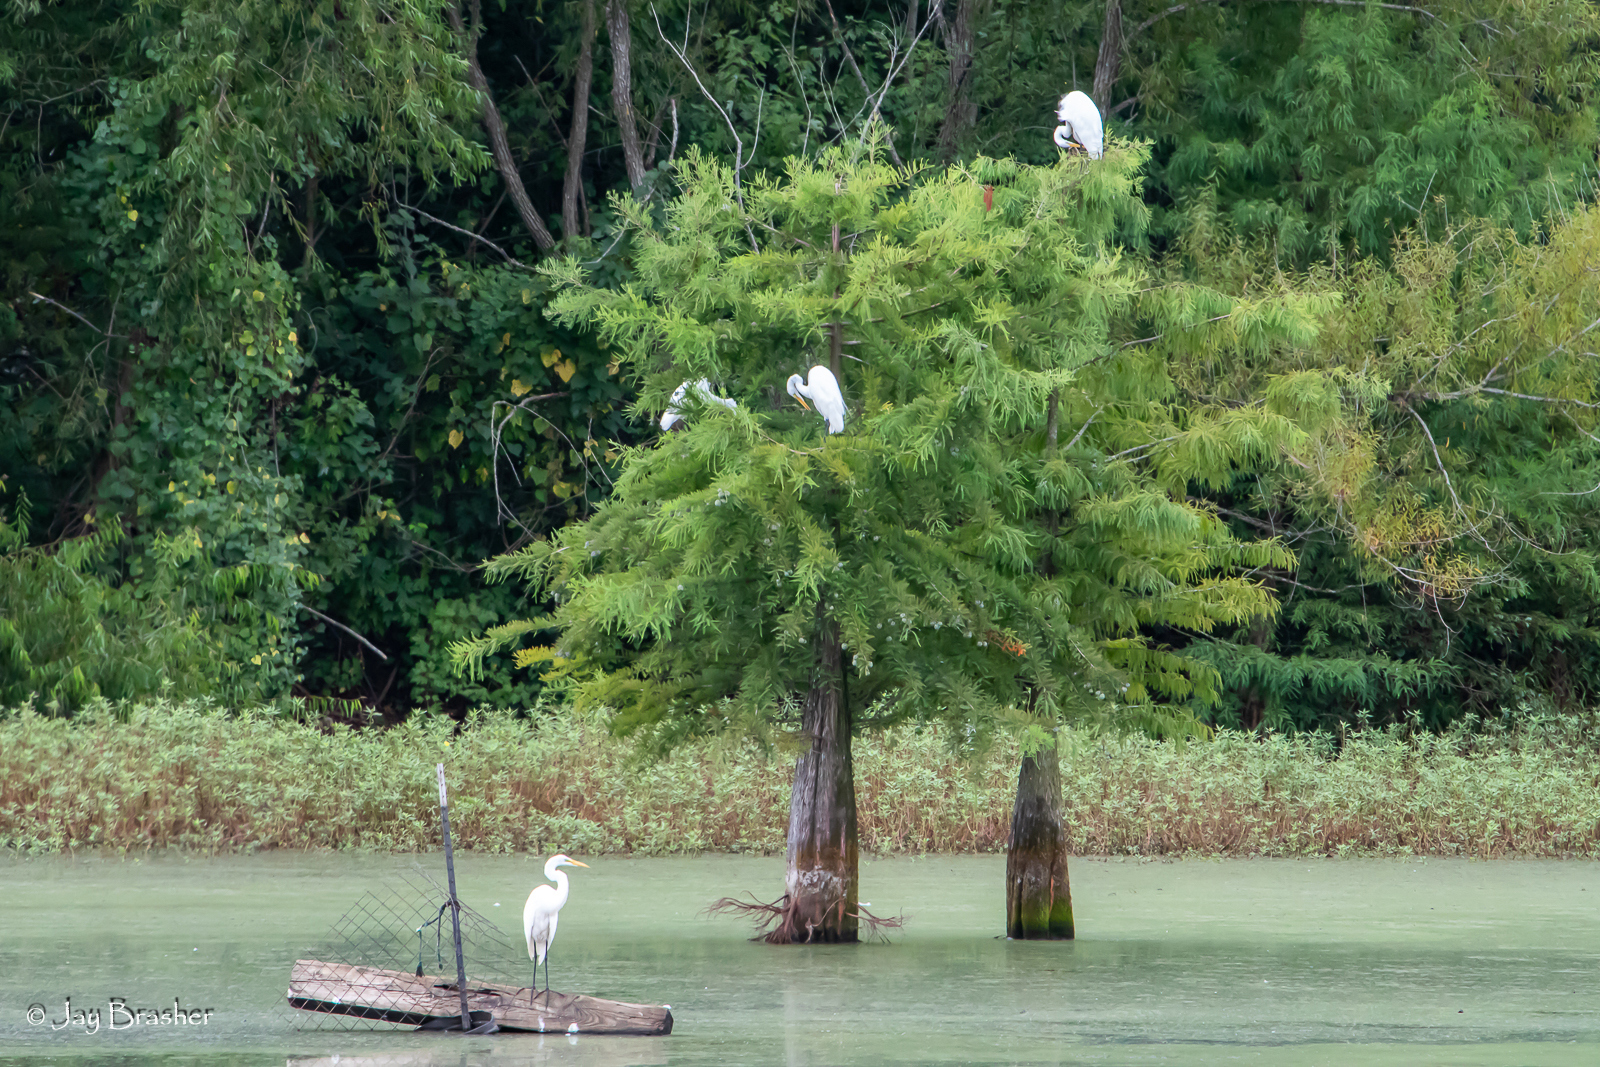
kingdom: Animalia
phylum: Chordata
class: Aves
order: Pelecaniformes
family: Ardeidae
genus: Ardea
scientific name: Ardea alba
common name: Great egret
